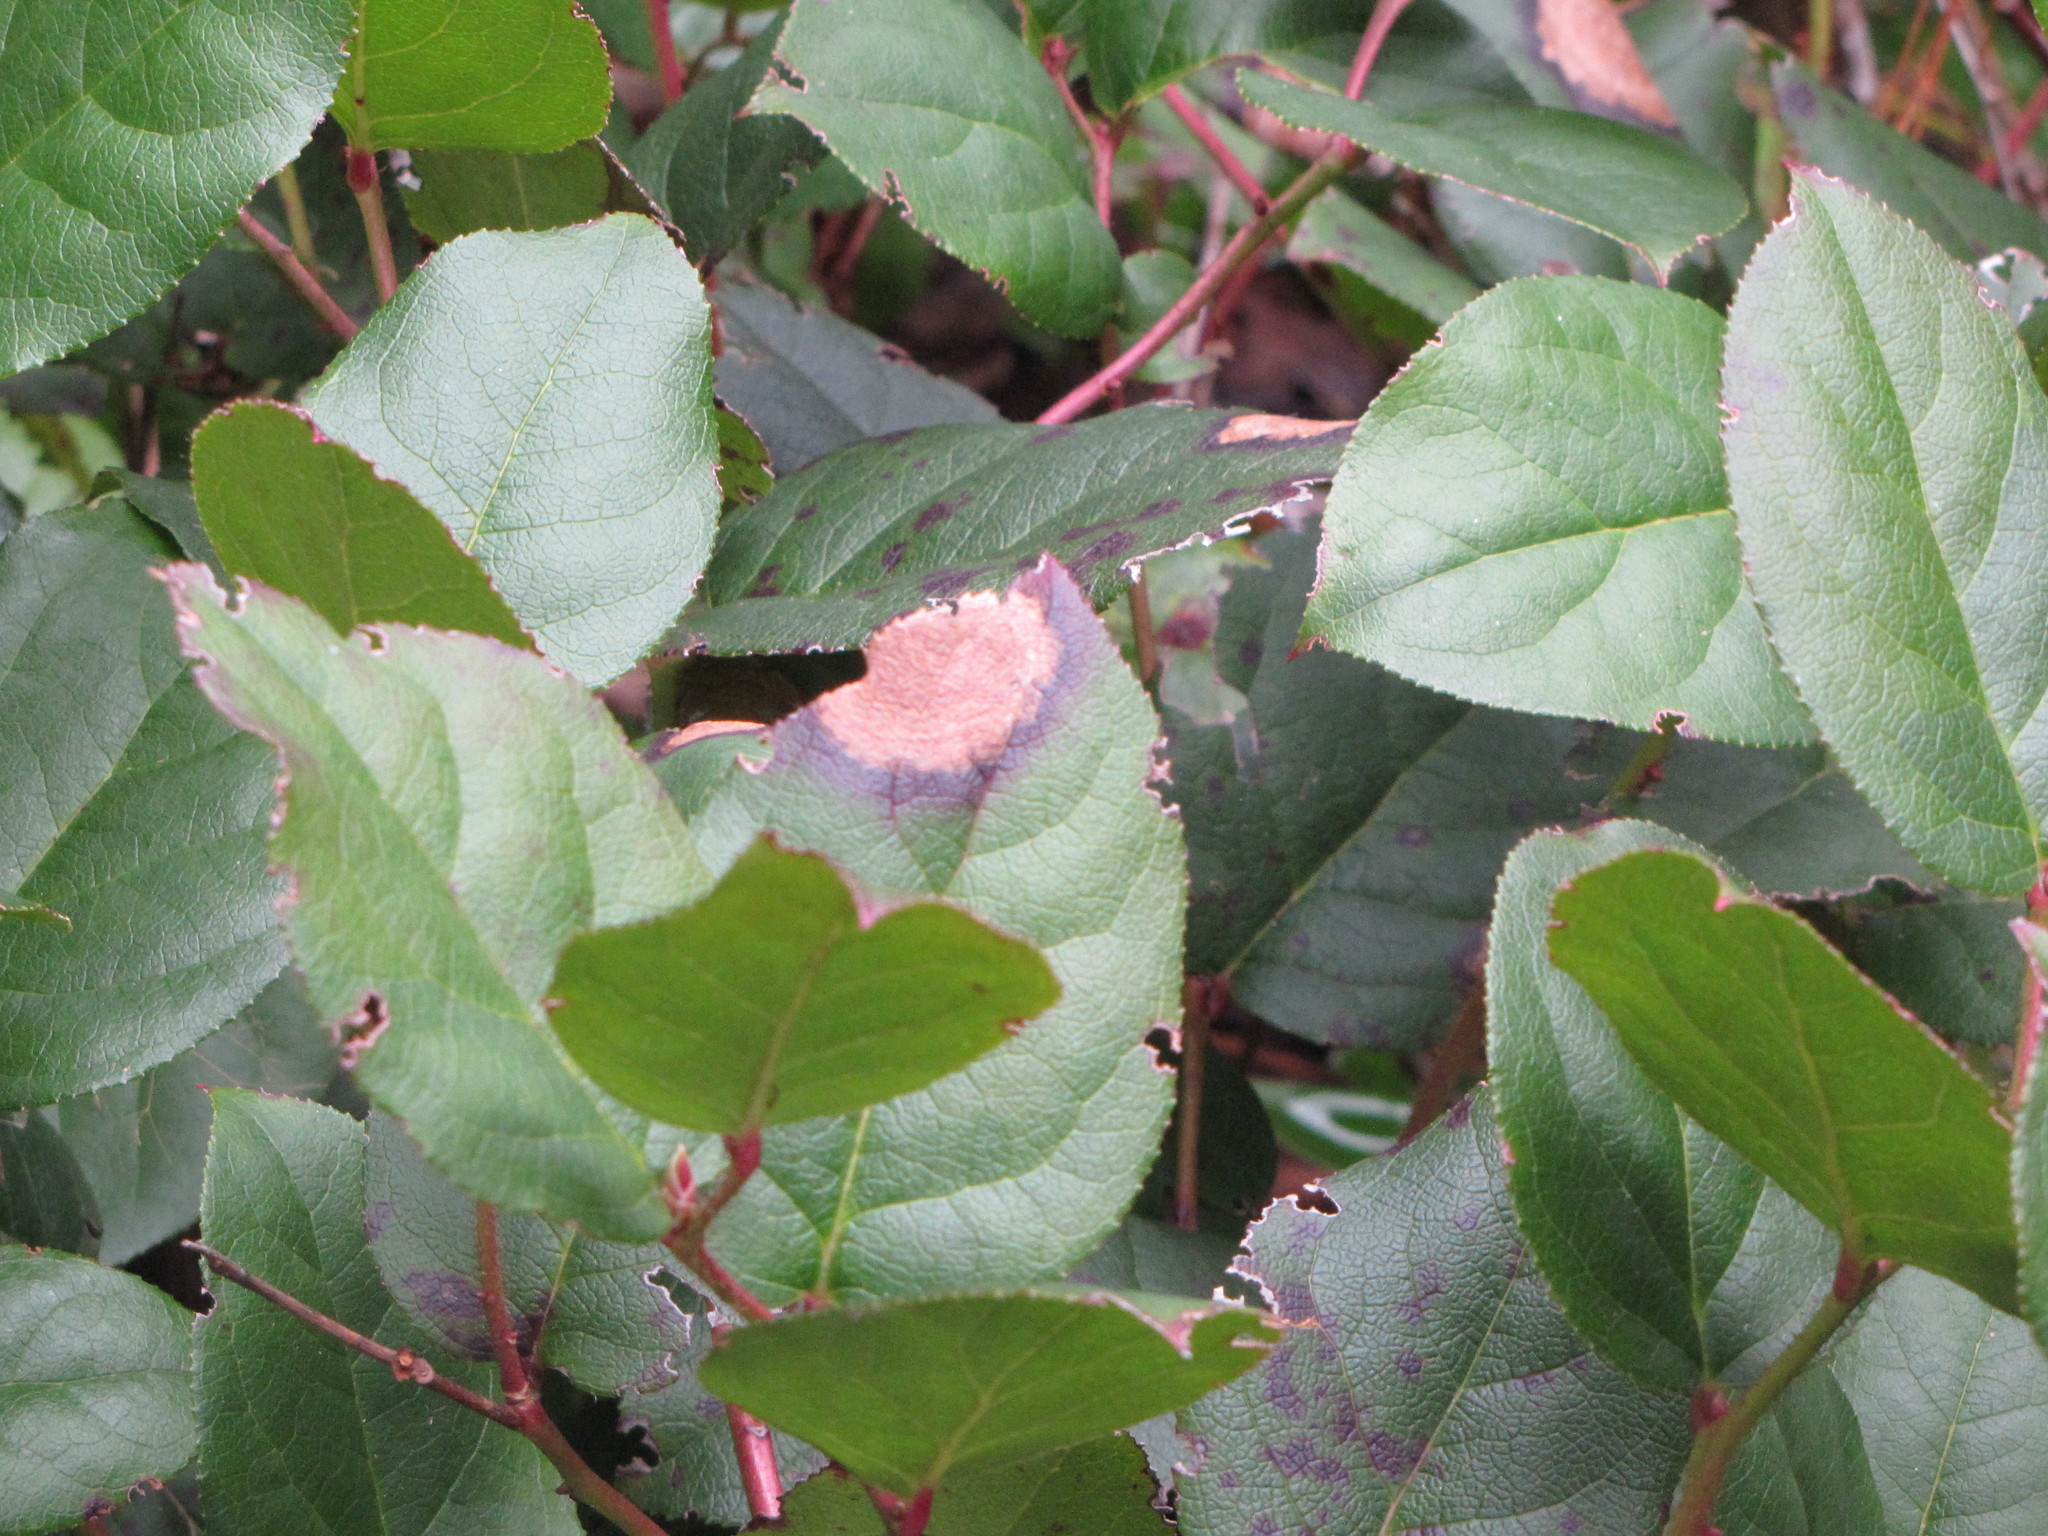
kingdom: Plantae
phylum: Tracheophyta
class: Magnoliopsida
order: Ericales
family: Ericaceae
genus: Gaultheria
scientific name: Gaultheria shallon
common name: Shallon
